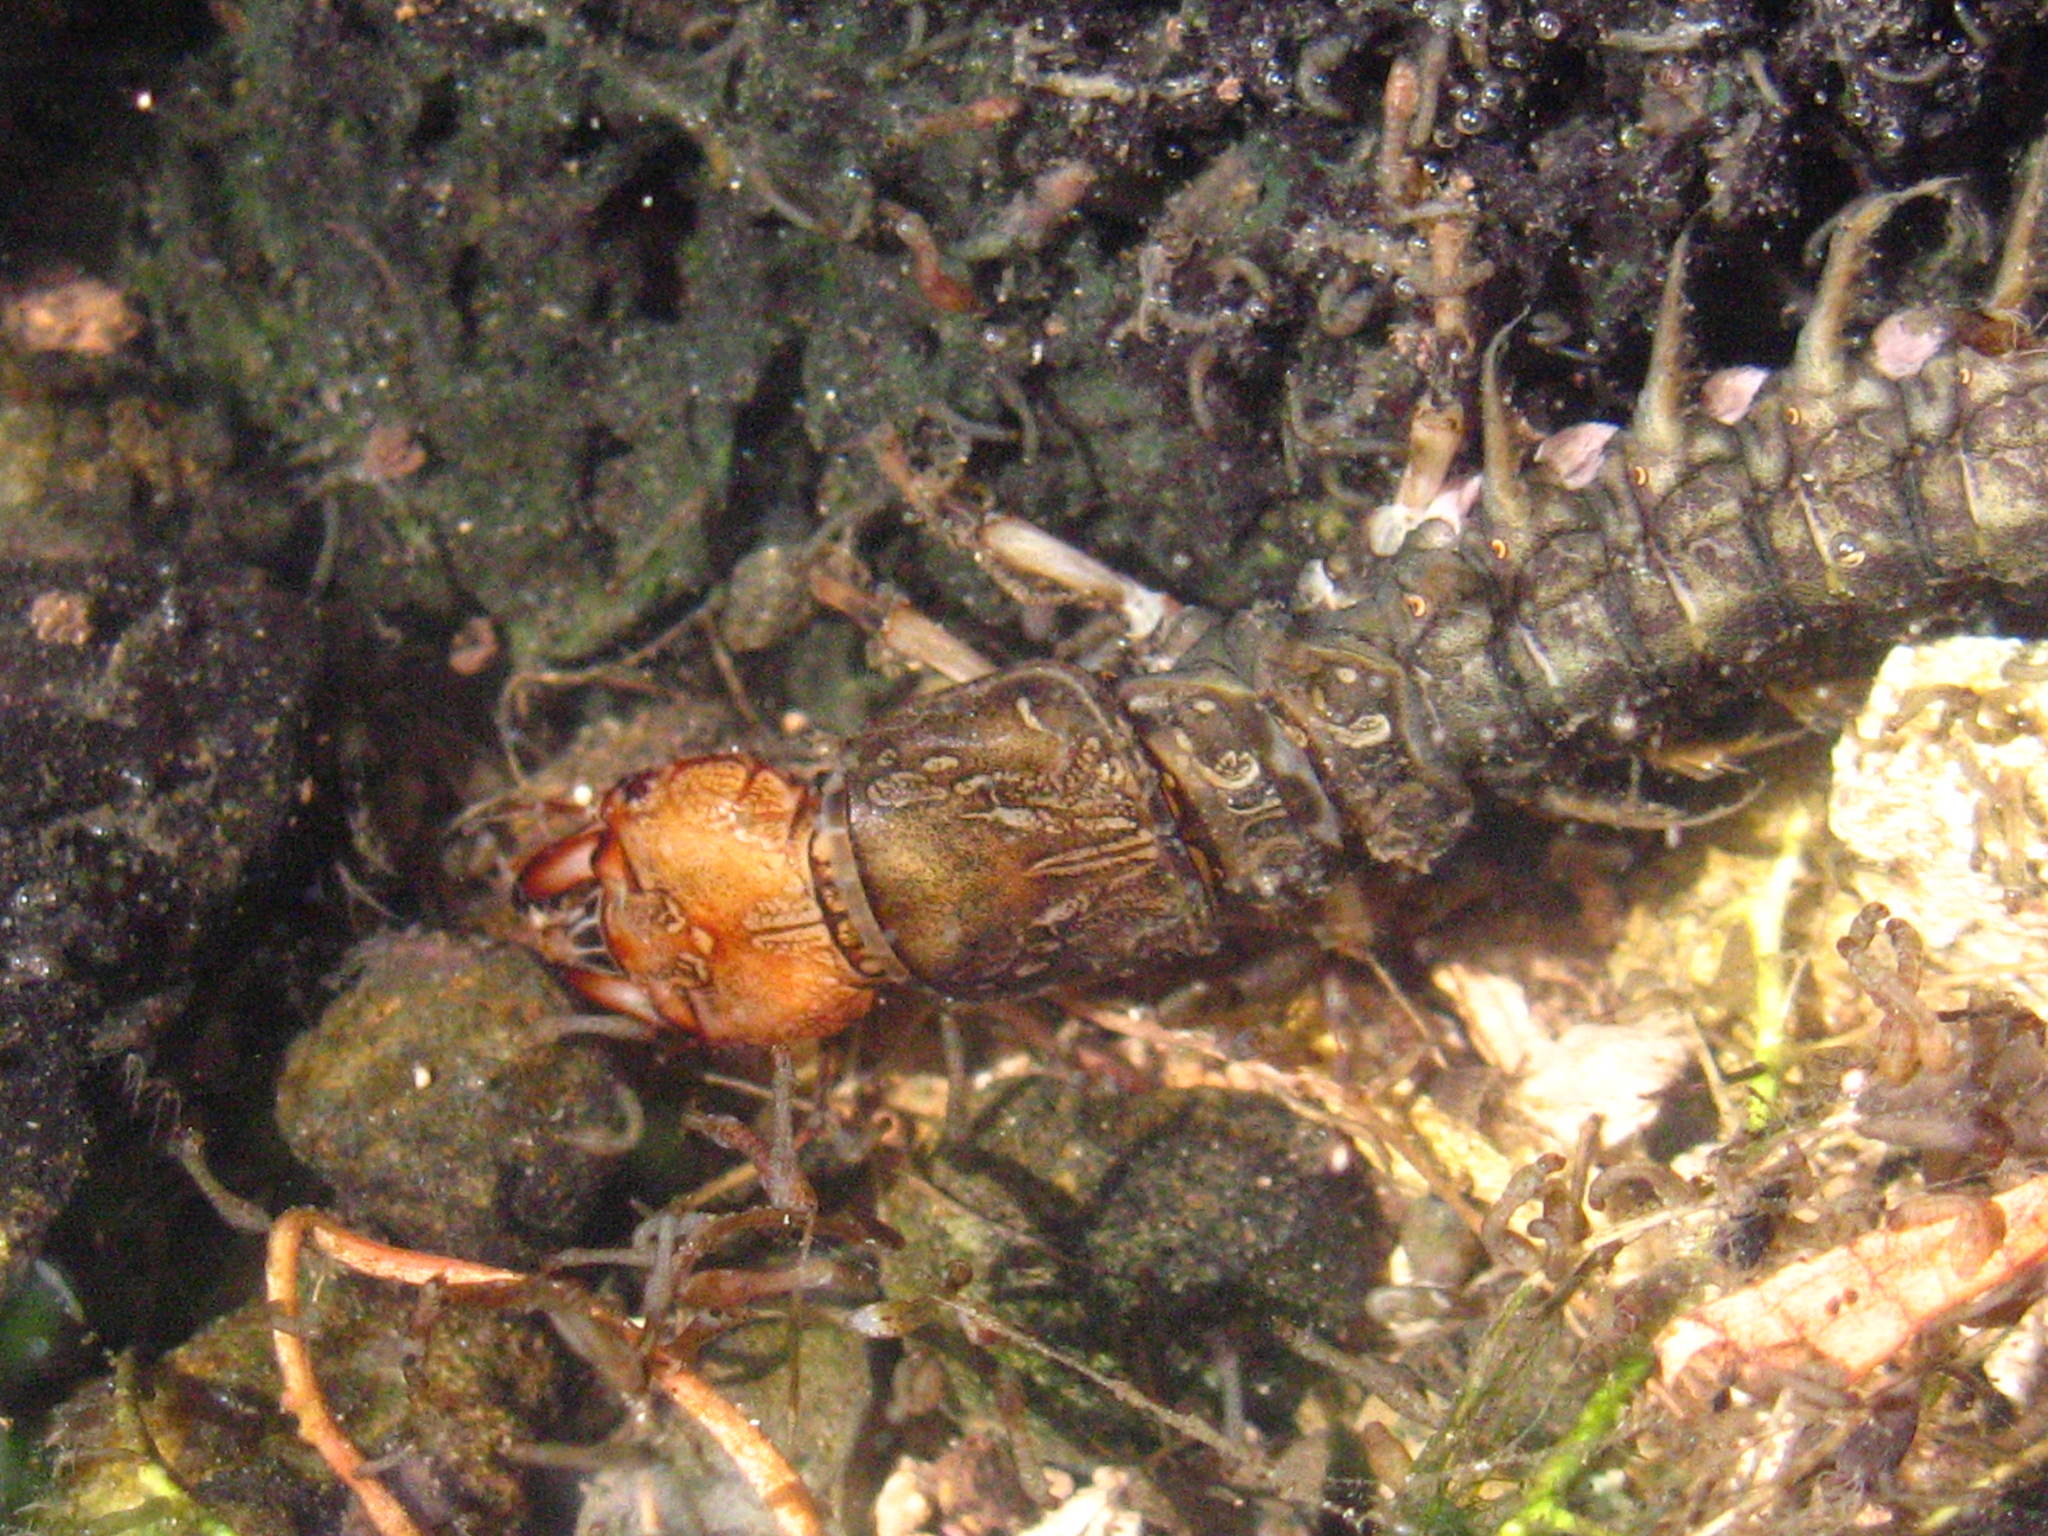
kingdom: Animalia
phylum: Arthropoda
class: Insecta
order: Megaloptera
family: Corydalidae
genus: Corydalus
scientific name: Corydalus texanus
